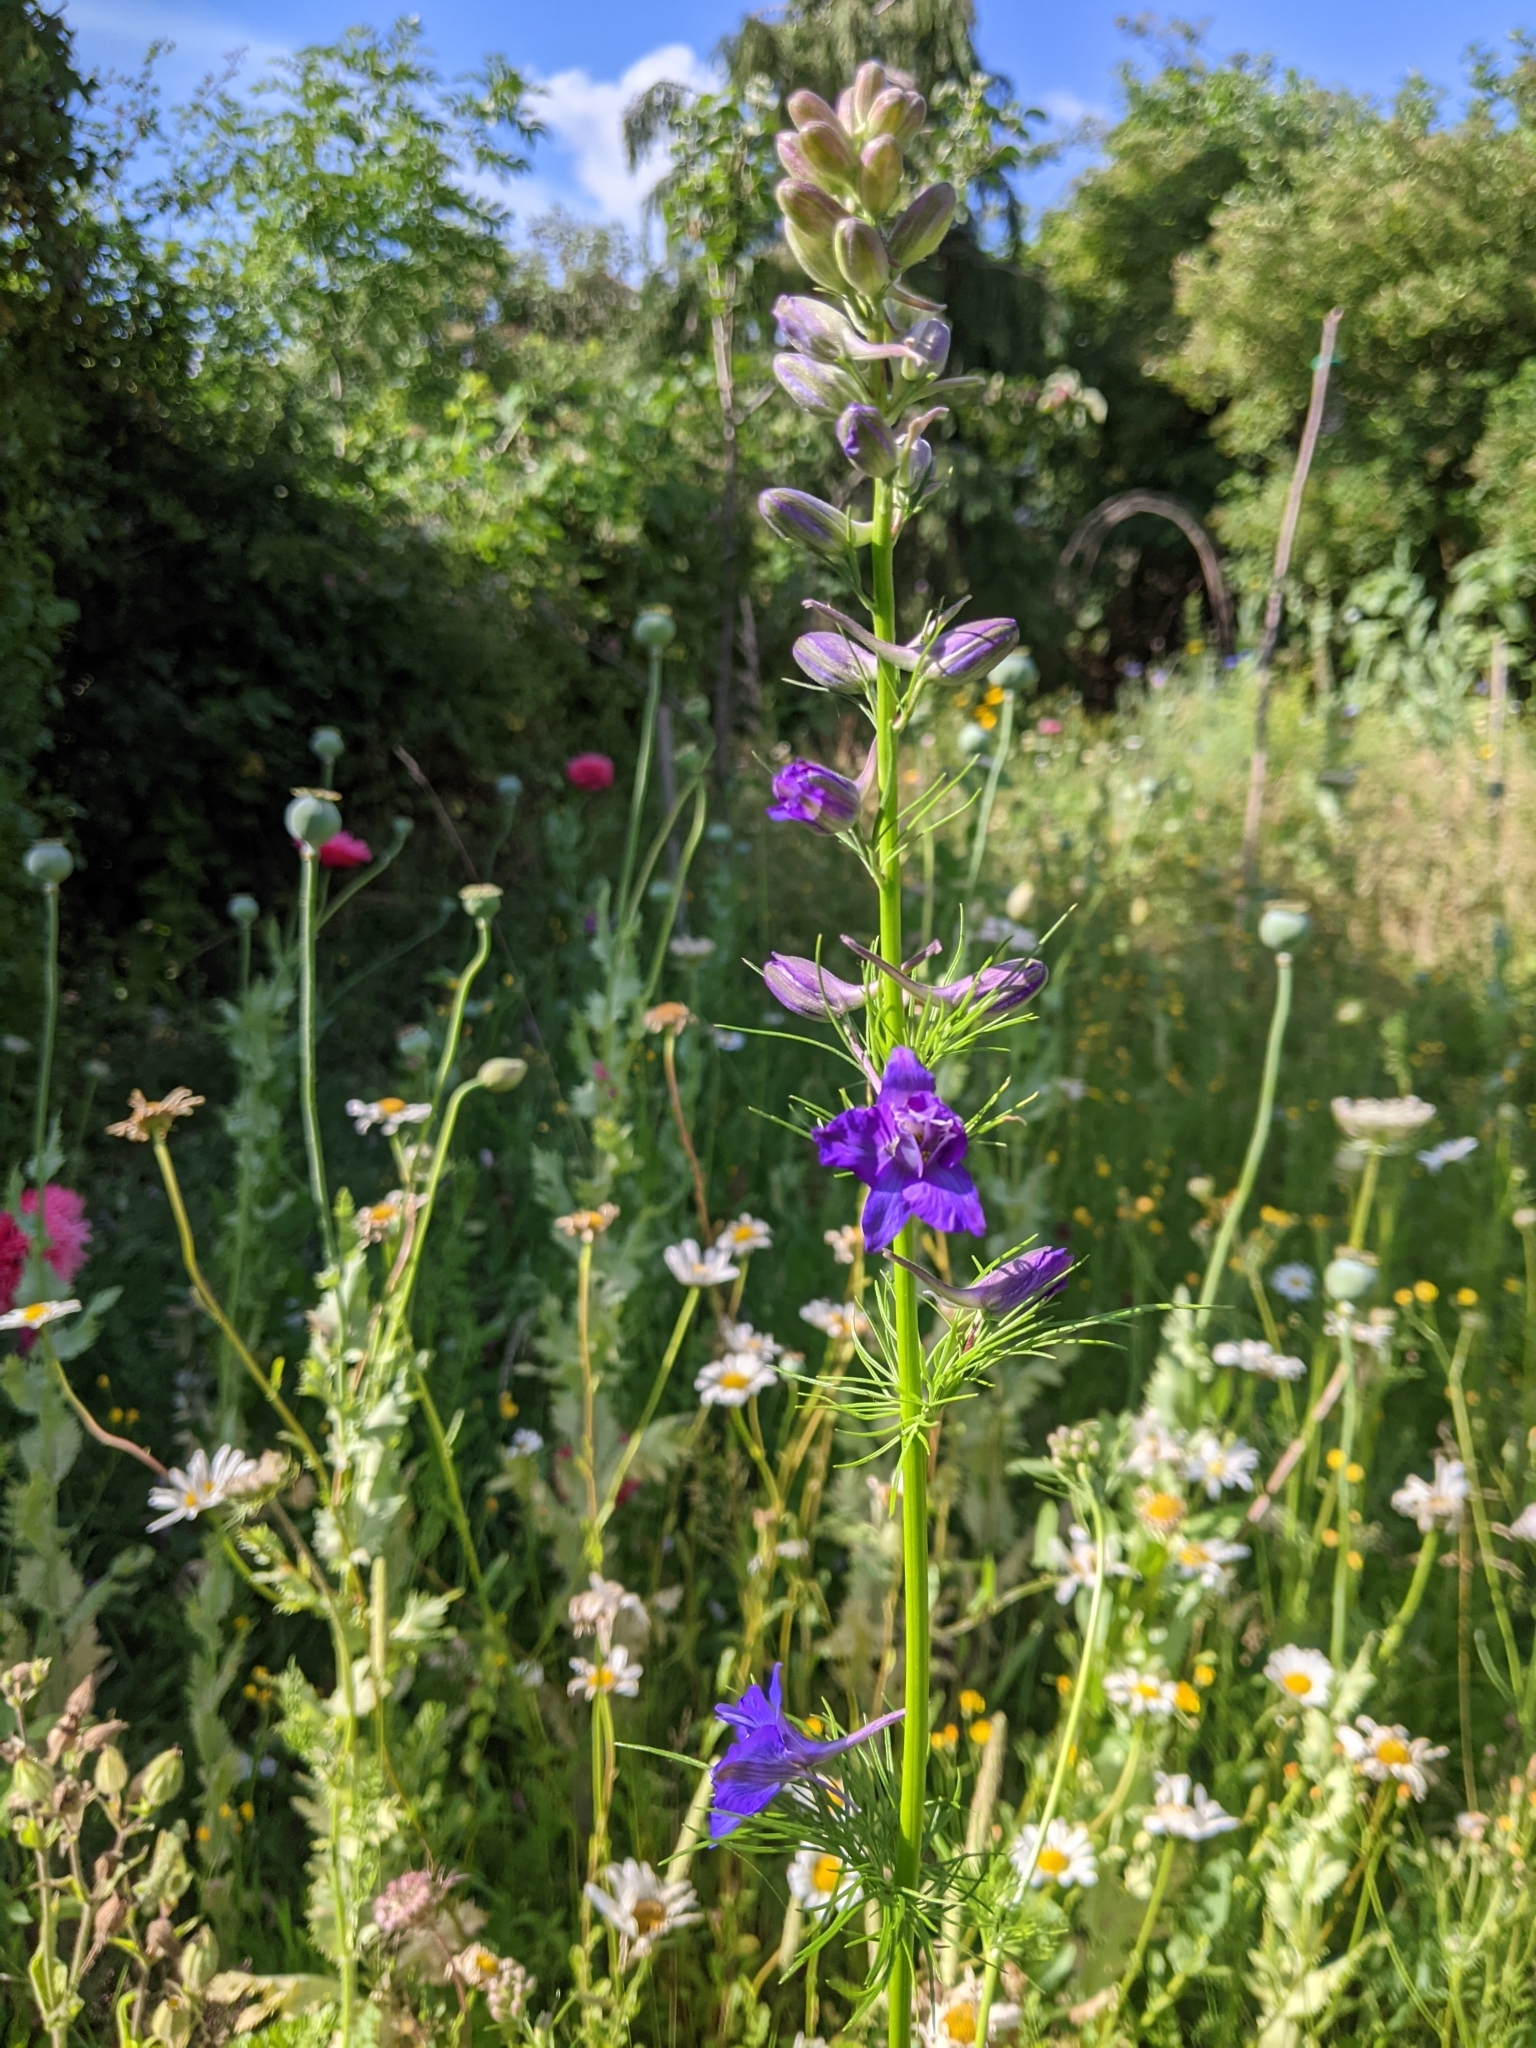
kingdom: Plantae
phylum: Tracheophyta
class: Magnoliopsida
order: Ranunculales
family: Ranunculaceae
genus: Delphinium
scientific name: Delphinium ajacis
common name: Doubtful knight's-spur
